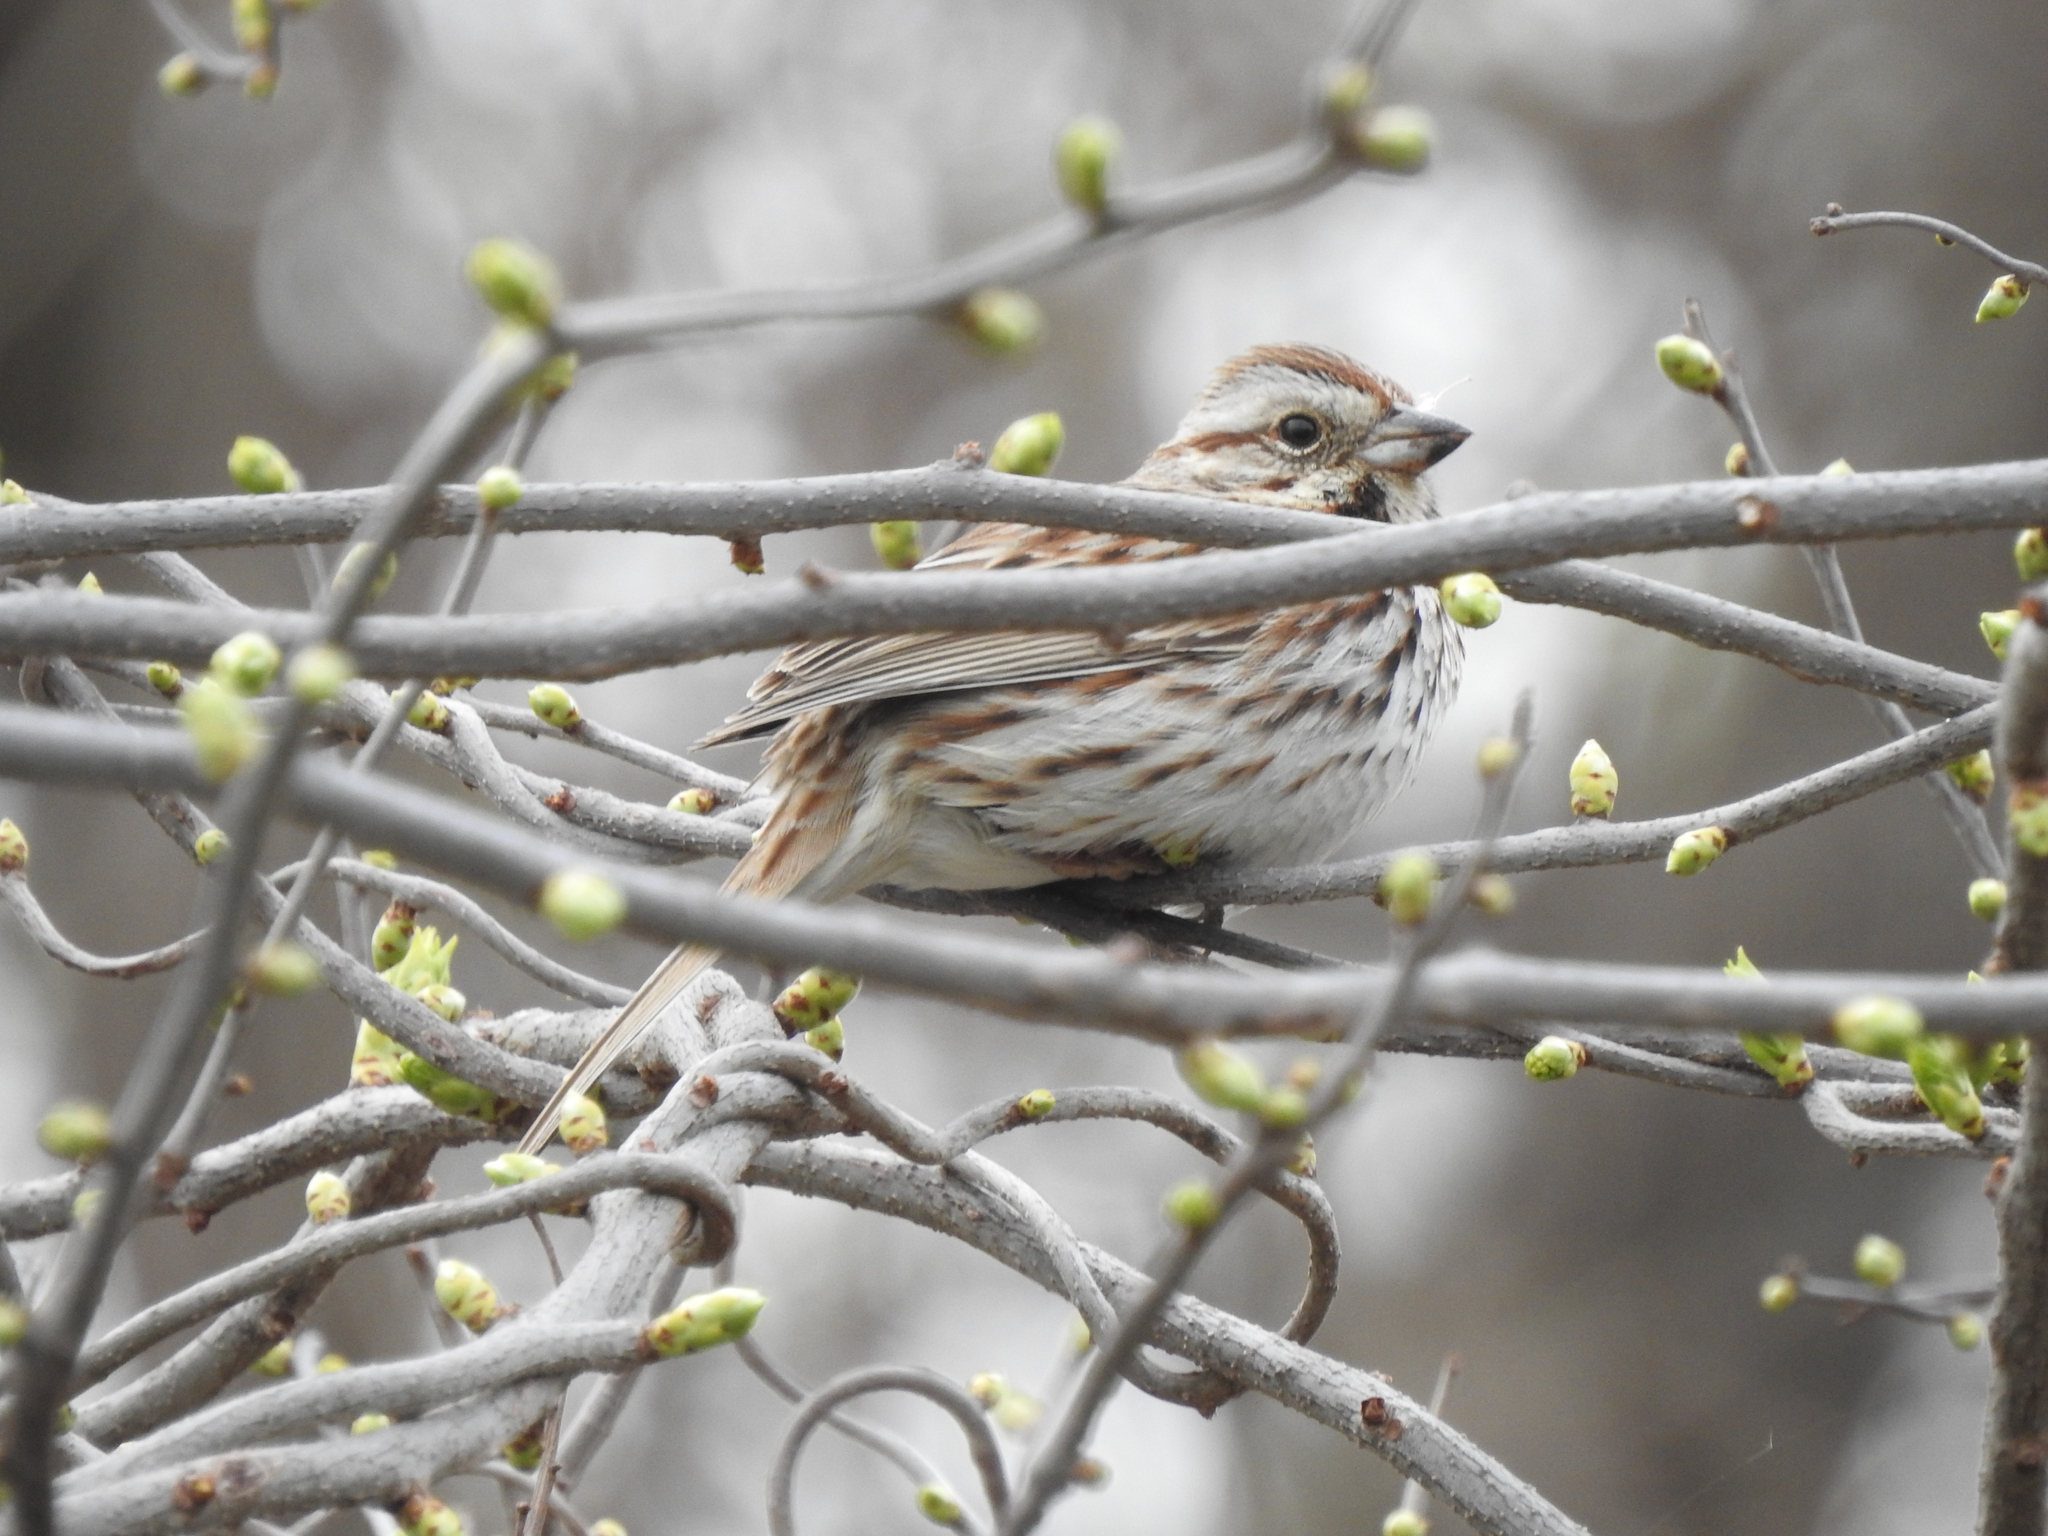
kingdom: Animalia
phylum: Chordata
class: Aves
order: Passeriformes
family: Passerellidae
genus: Melospiza
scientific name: Melospiza melodia
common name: Song sparrow
